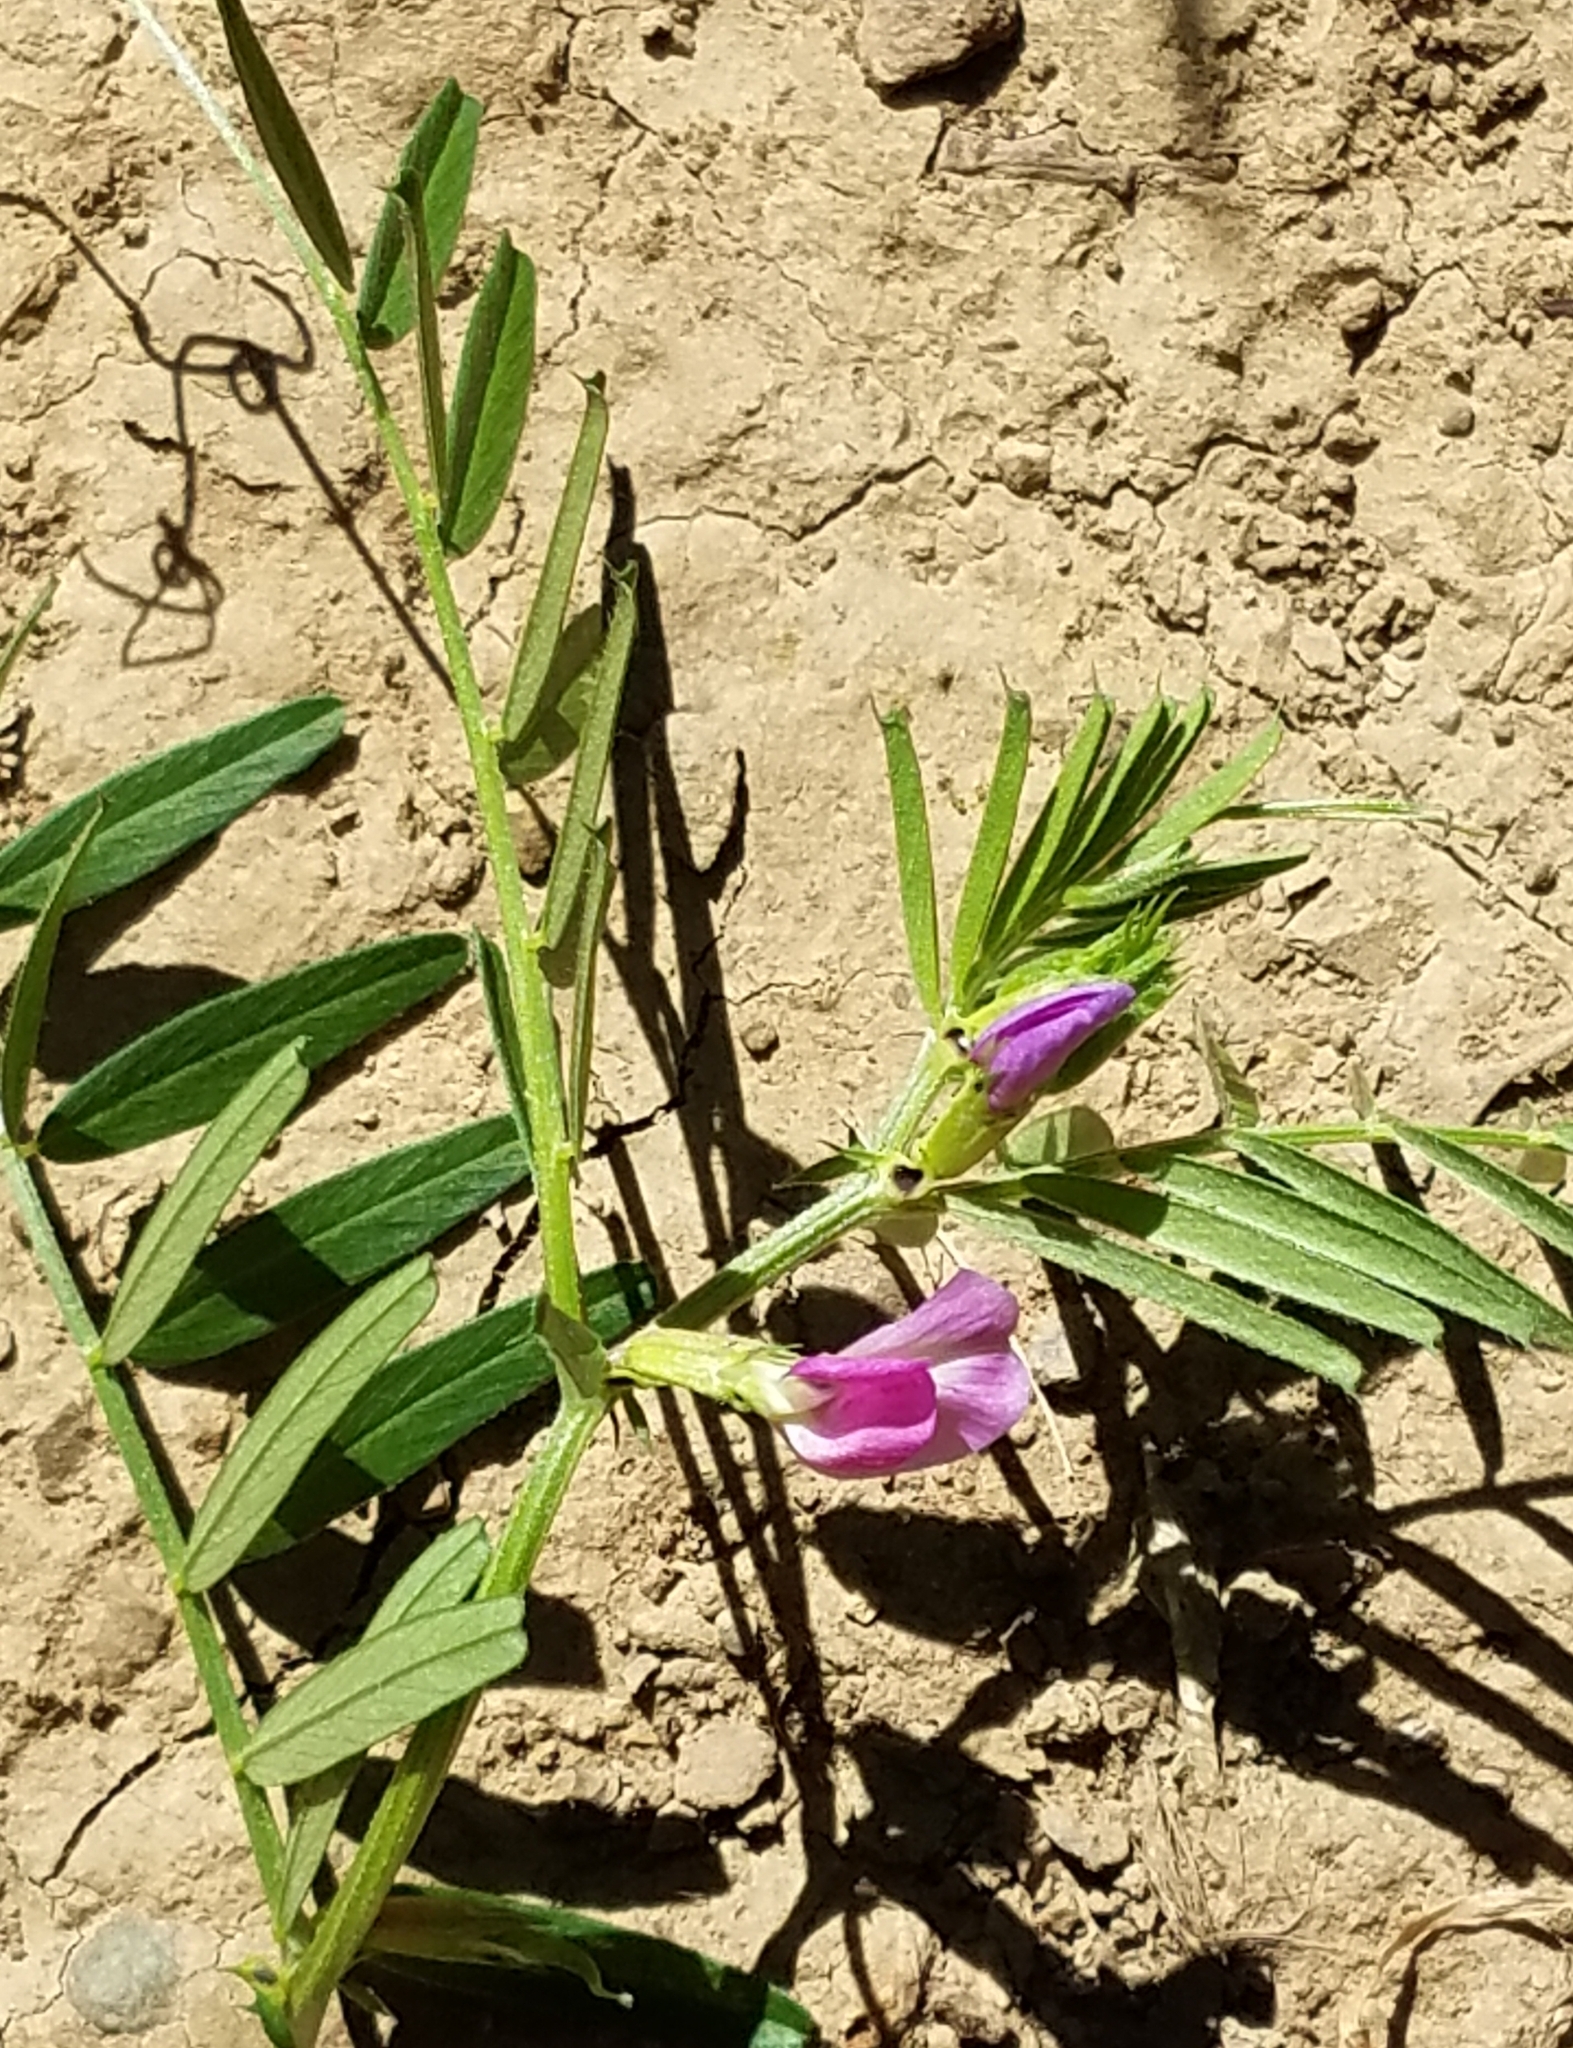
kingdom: Plantae
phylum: Tracheophyta
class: Magnoliopsida
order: Fabales
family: Fabaceae
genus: Vicia
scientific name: Vicia sativa
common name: Garden vetch
